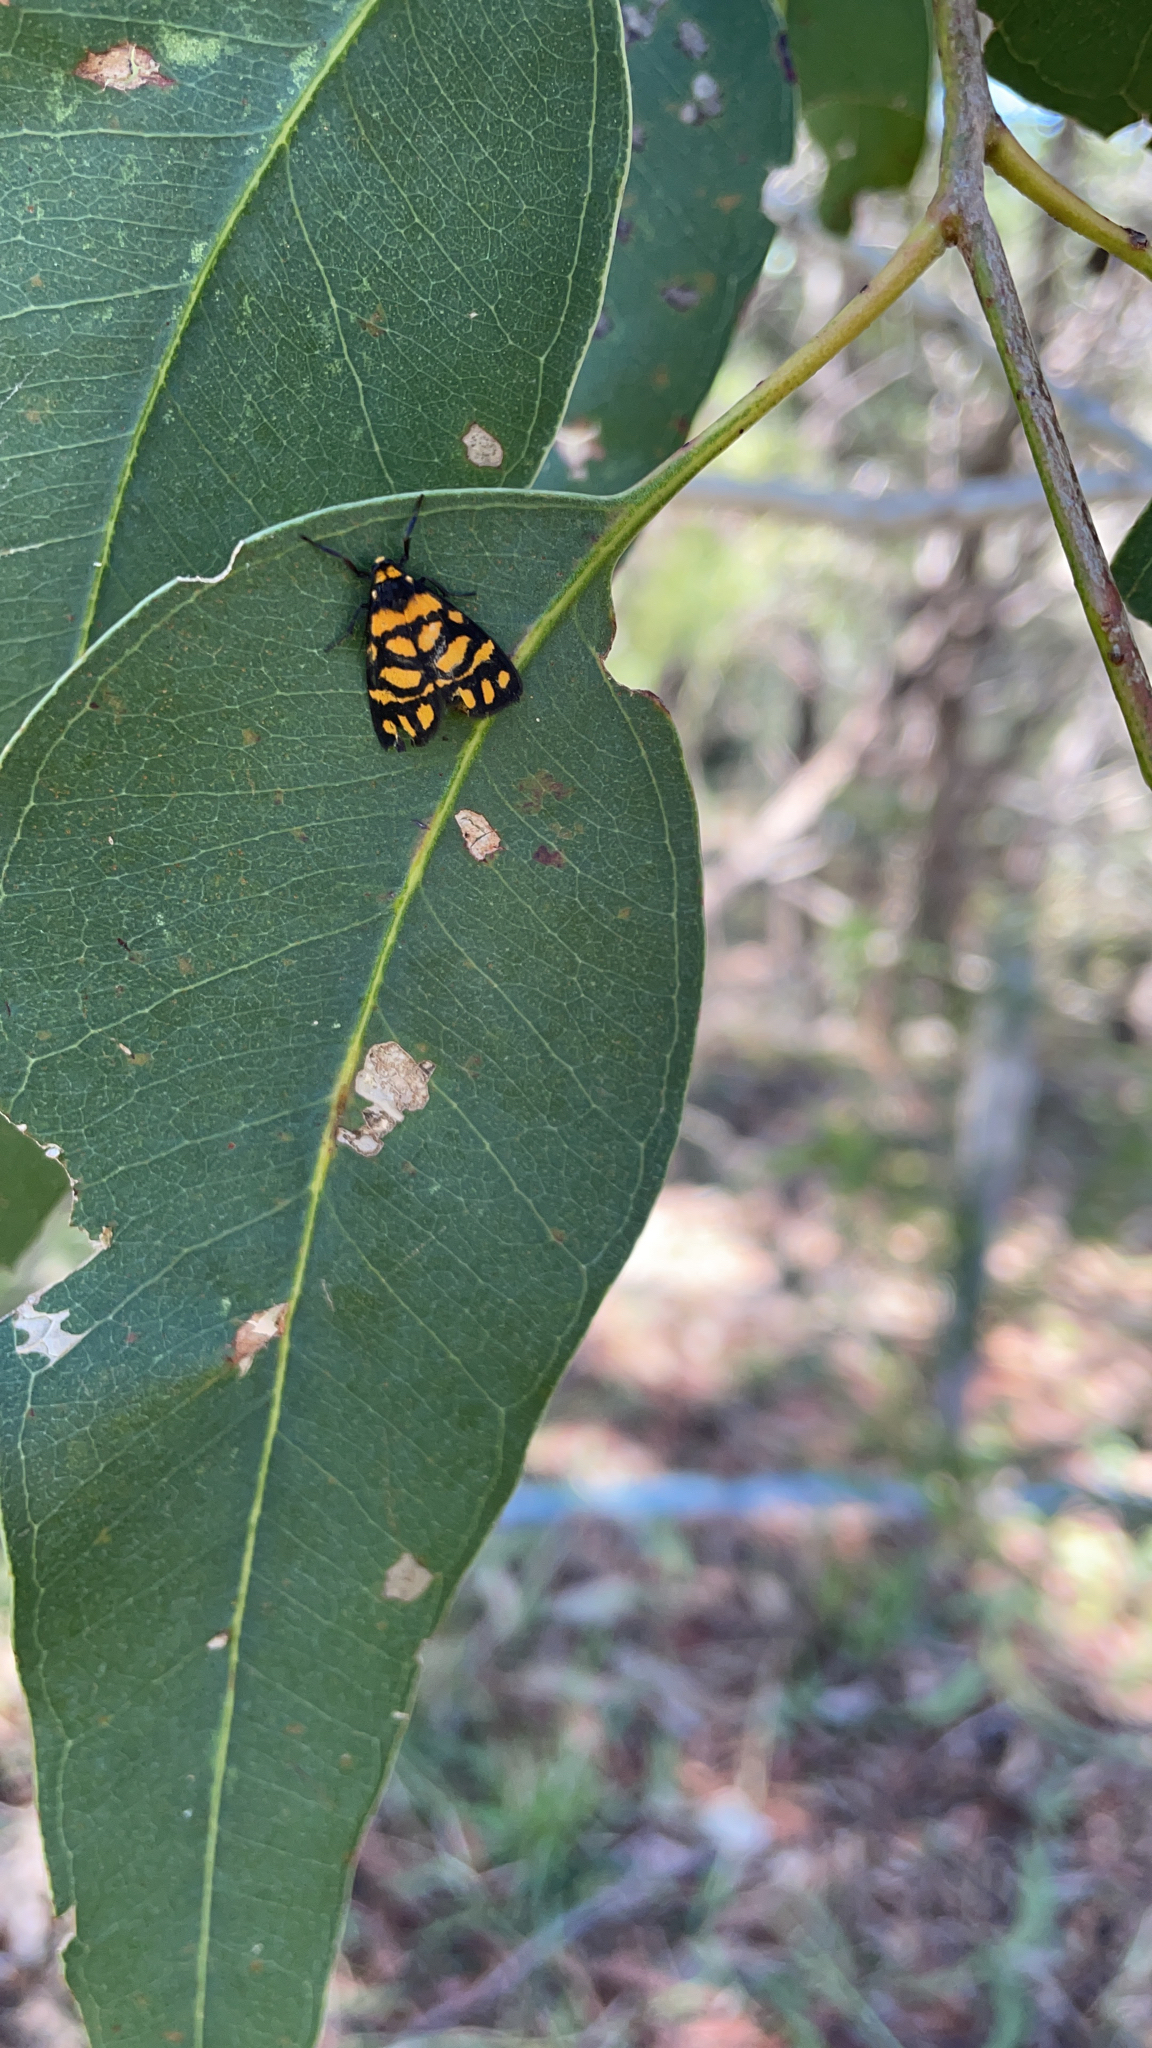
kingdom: Animalia
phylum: Arthropoda
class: Insecta
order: Lepidoptera
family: Erebidae
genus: Asura
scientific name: Asura lydia
